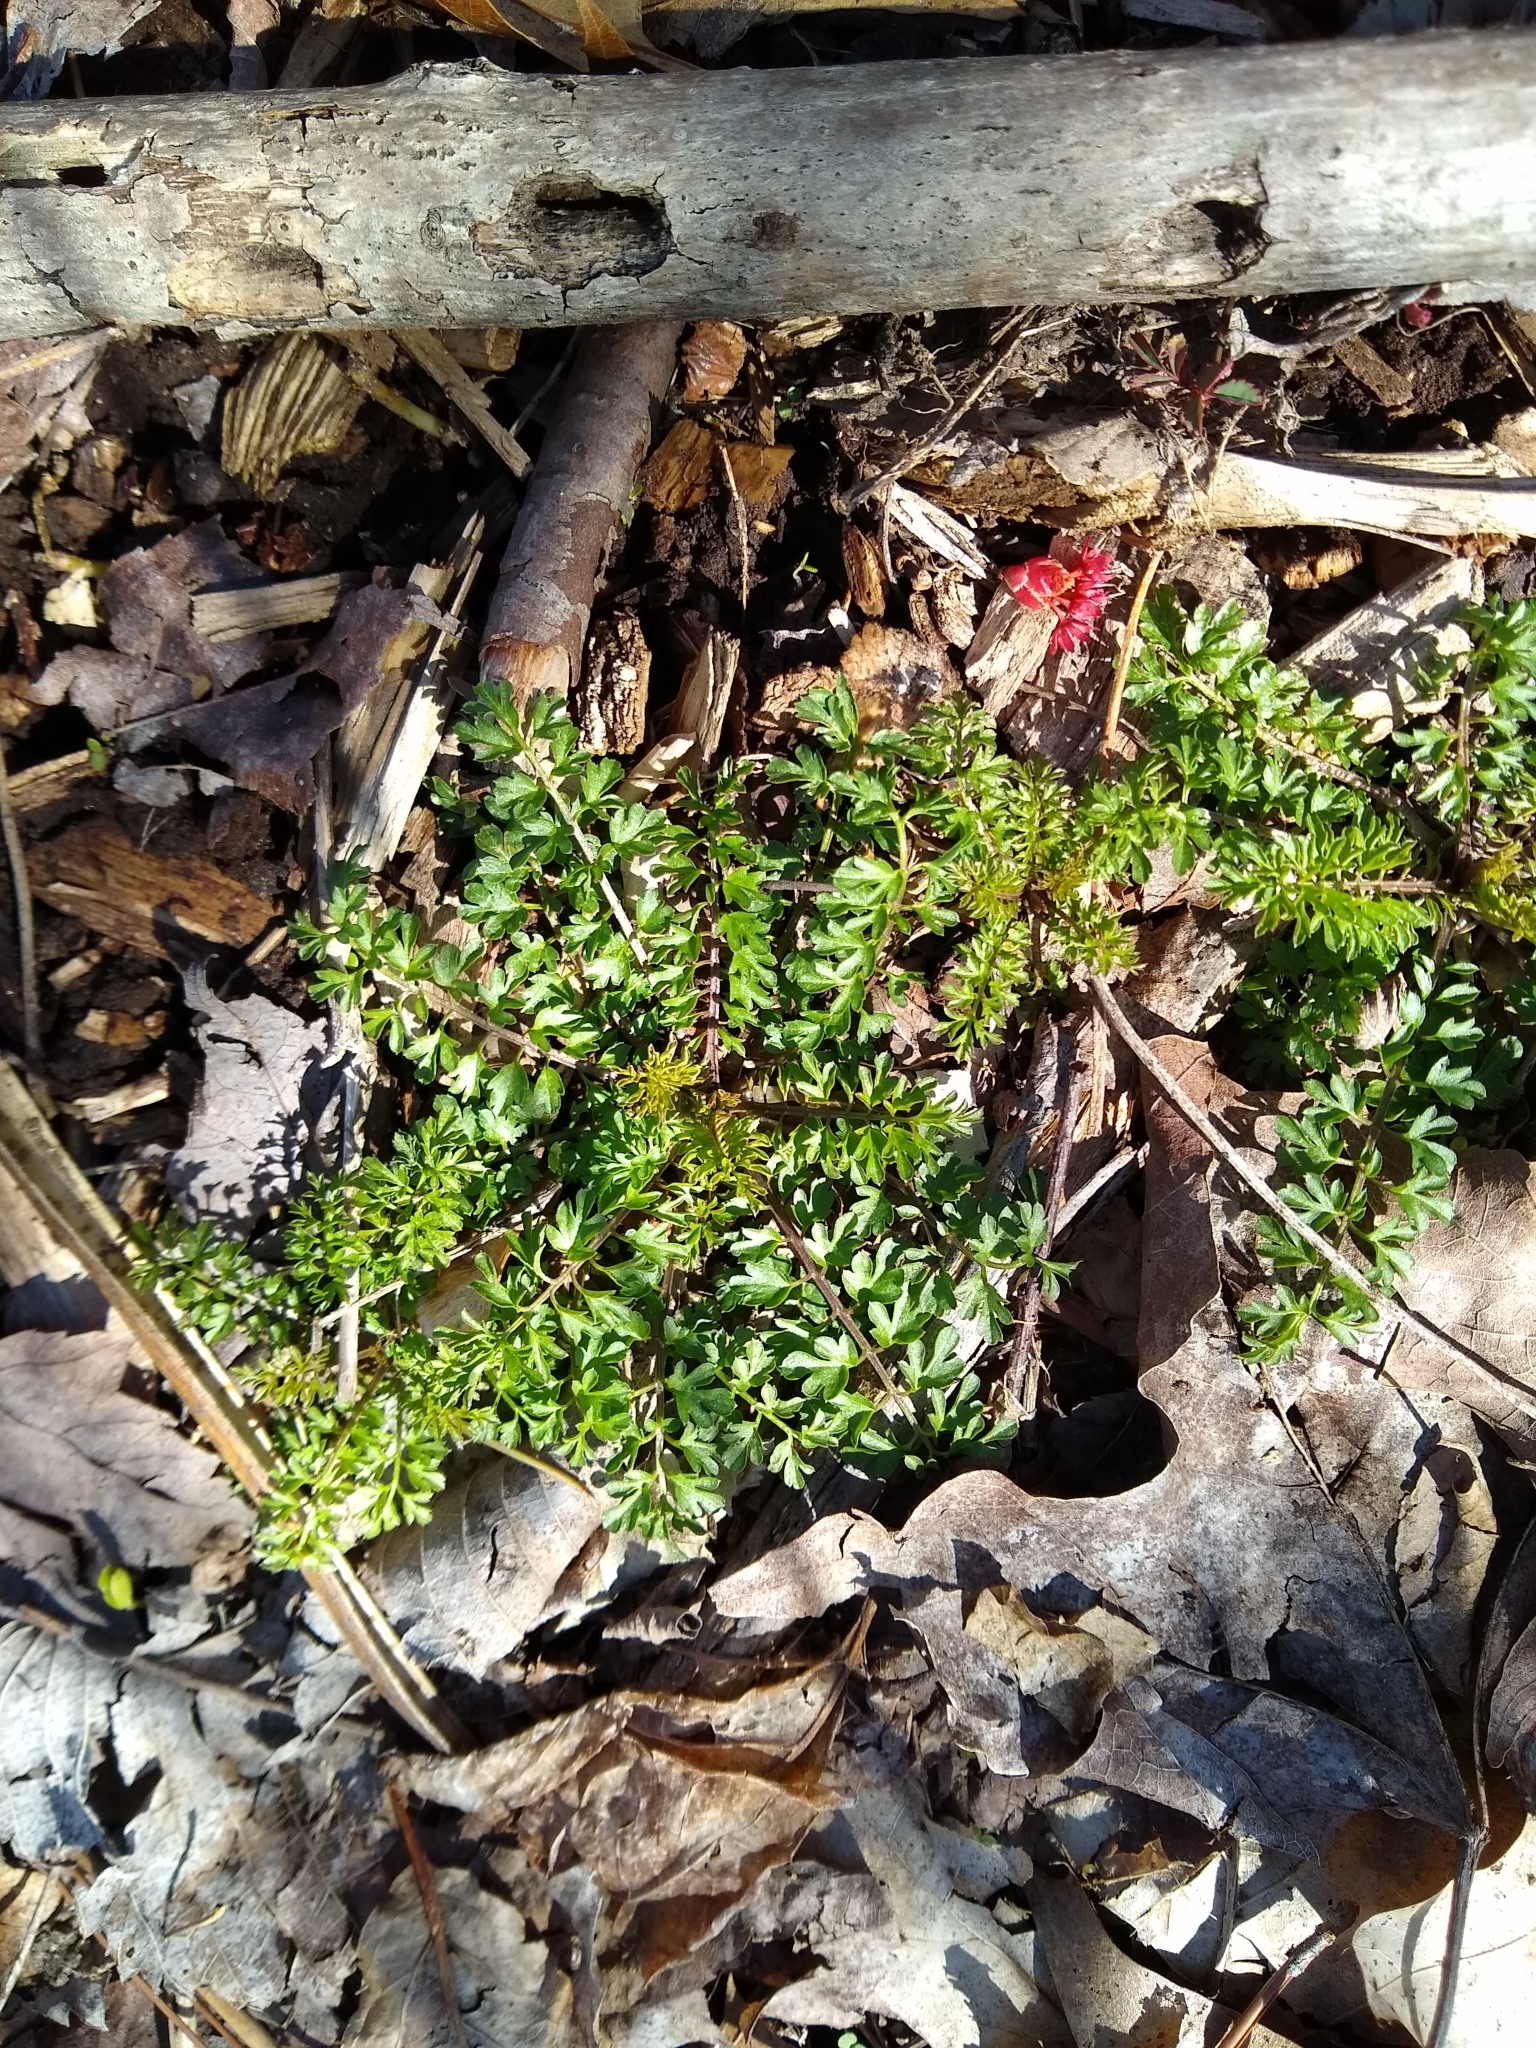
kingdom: Plantae
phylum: Tracheophyta
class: Magnoliopsida
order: Brassicales
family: Brassicaceae
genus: Cardamine
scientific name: Cardamine impatiens
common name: Narrow-leaved bitter-cress
